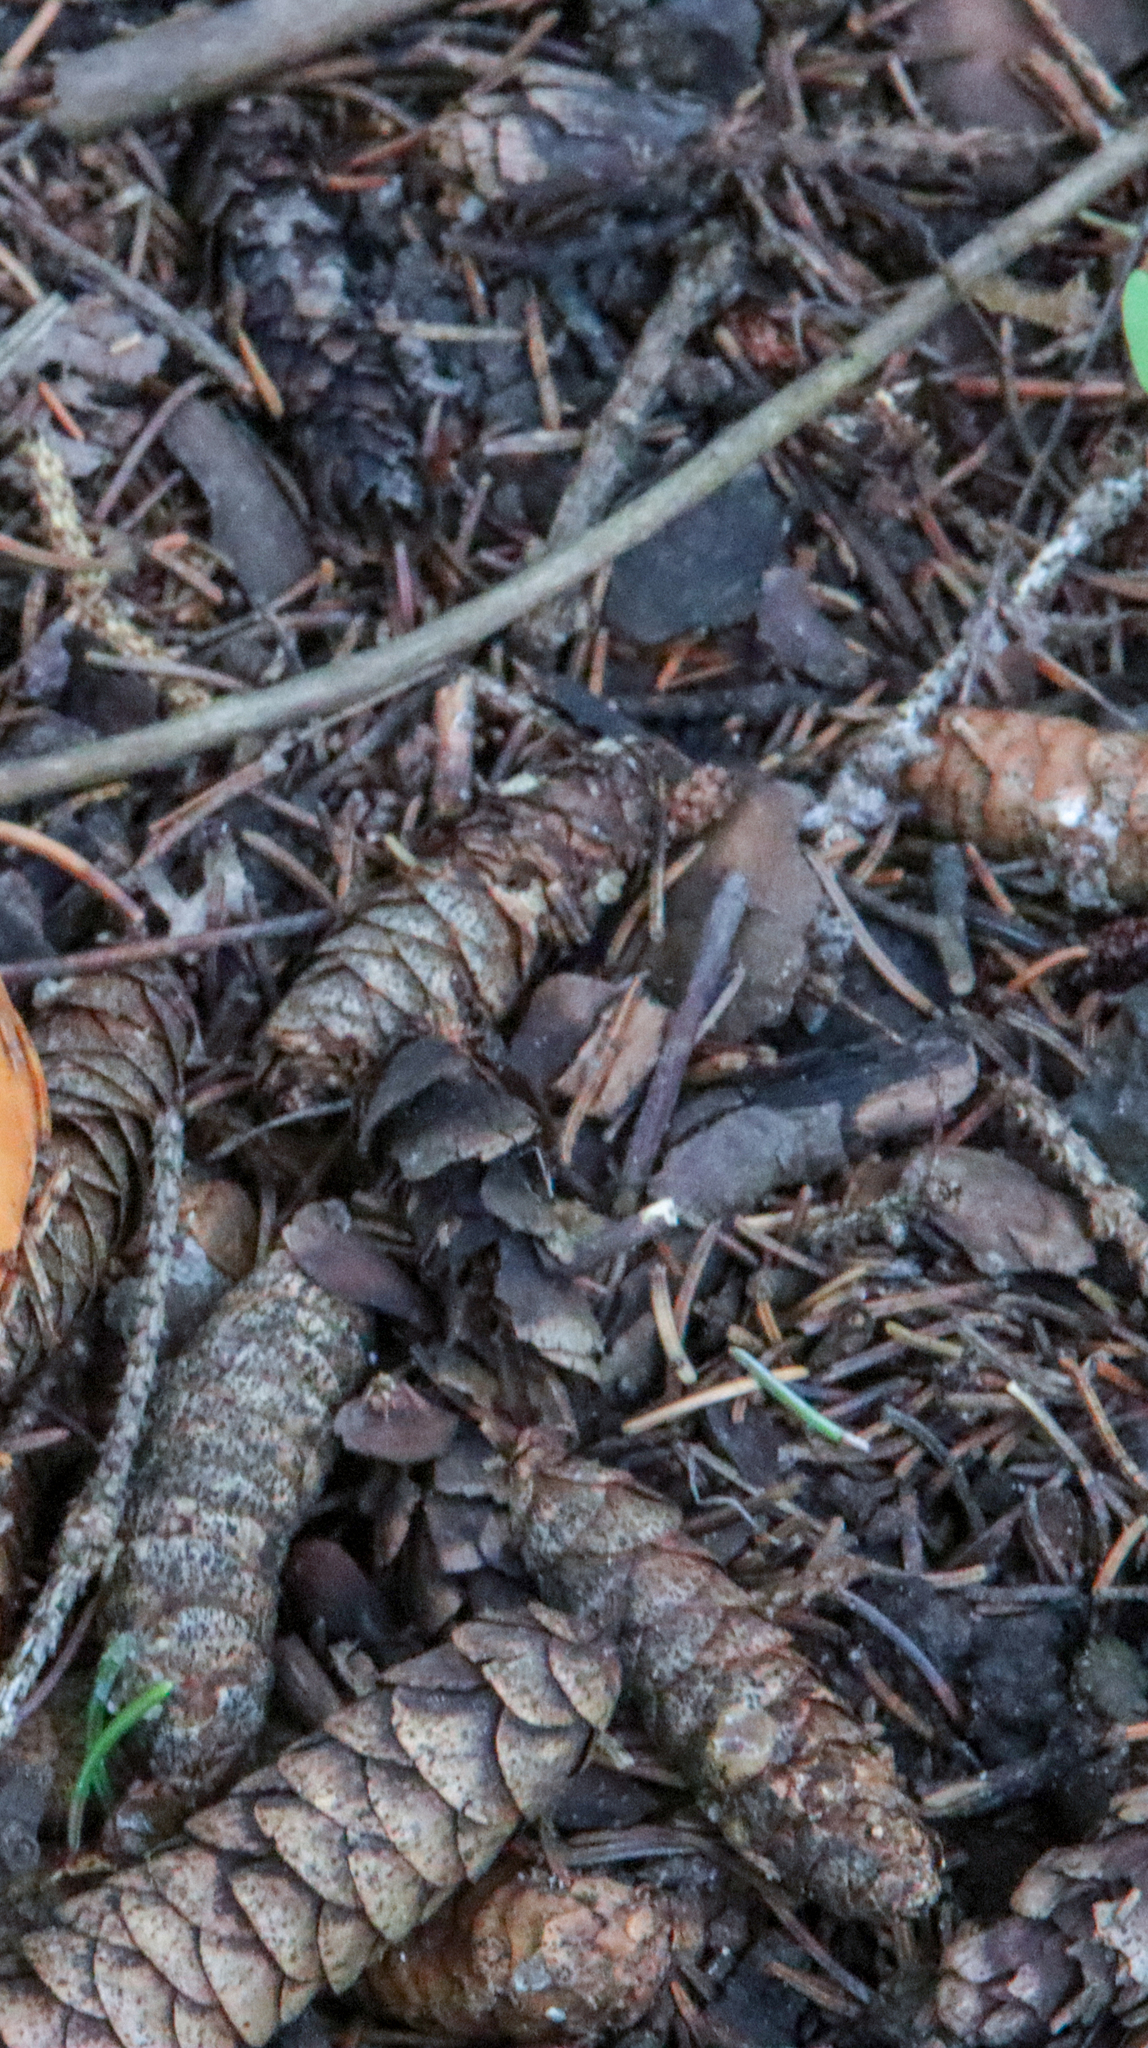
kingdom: Plantae
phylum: Tracheophyta
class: Pinopsida
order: Pinales
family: Pinaceae
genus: Picea
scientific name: Picea glauca
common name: White spruce
